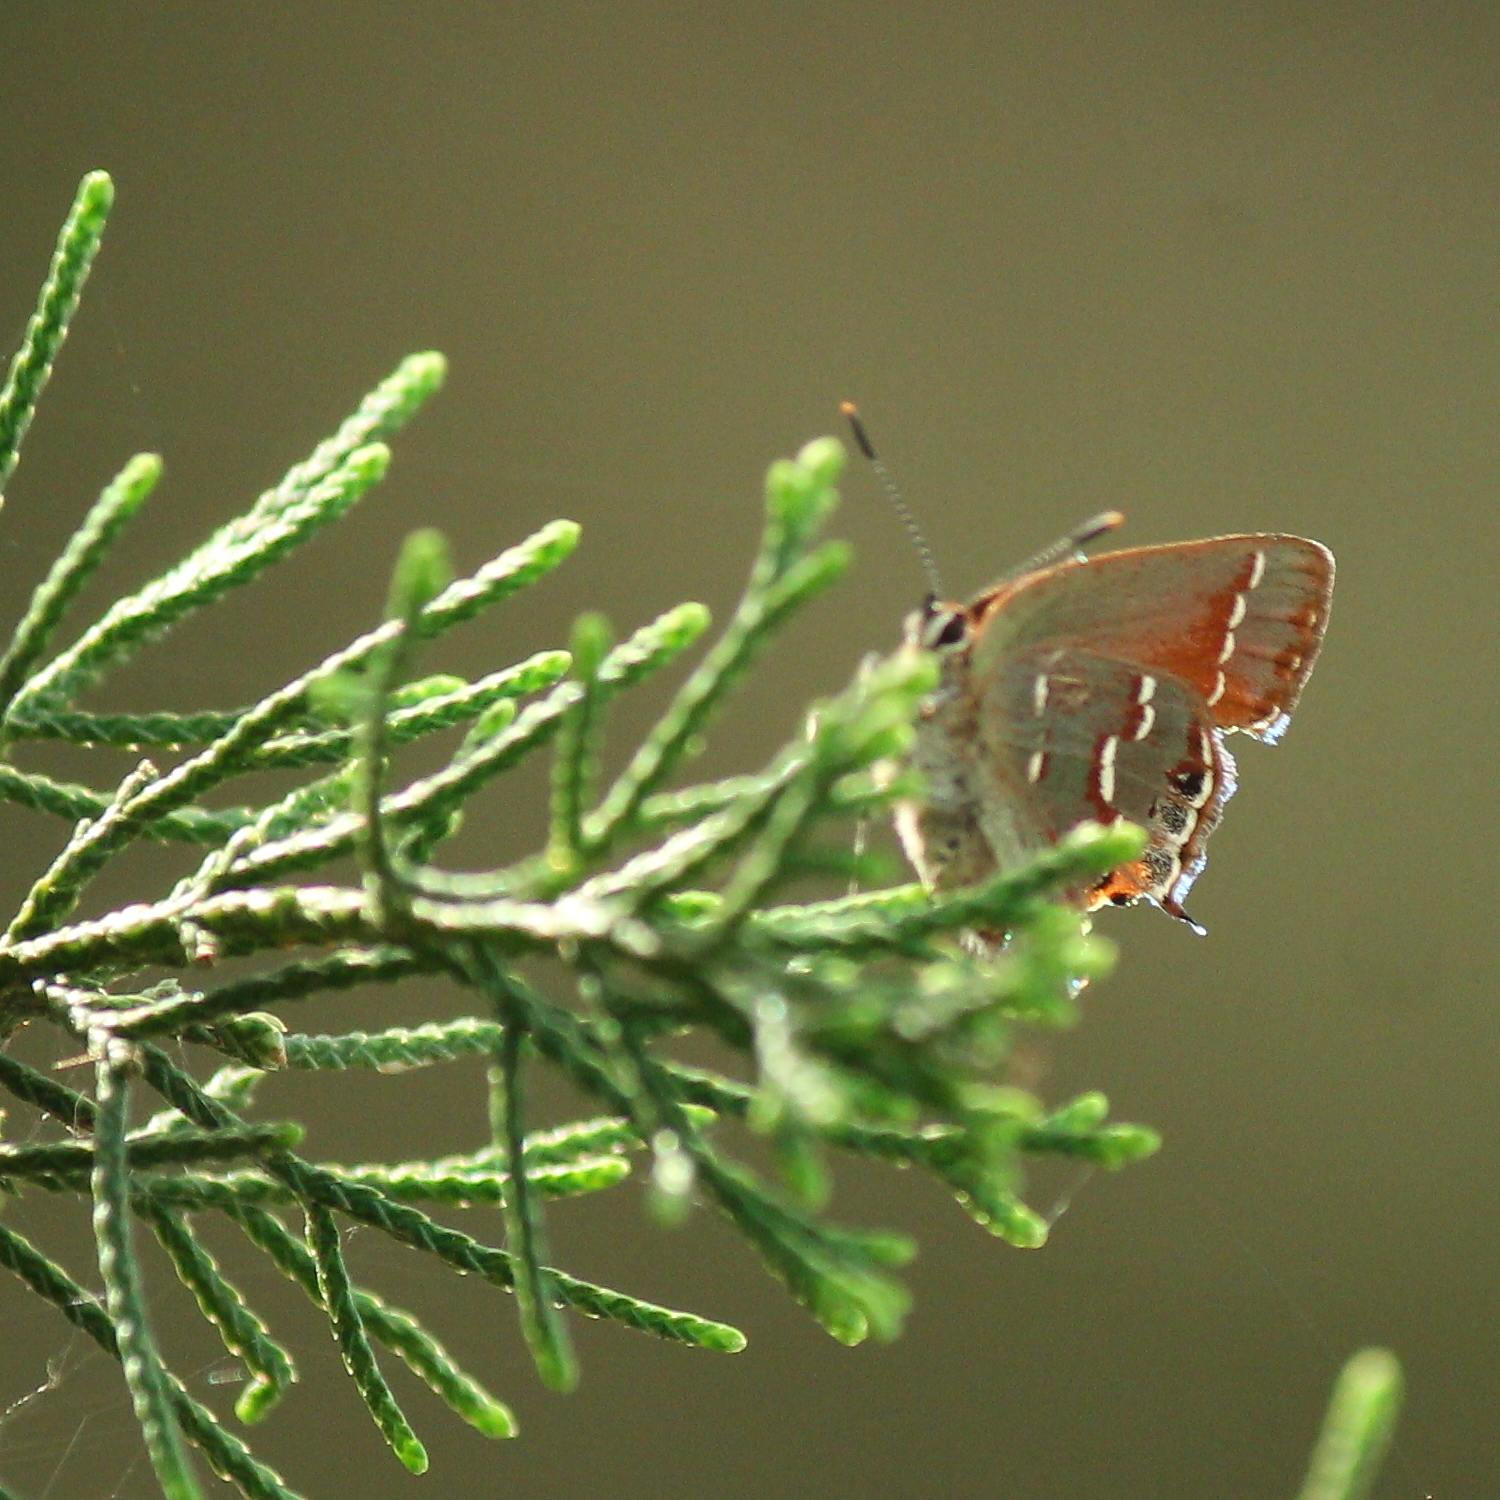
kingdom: Animalia
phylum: Arthropoda
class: Insecta
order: Lepidoptera
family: Lycaenidae
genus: Mitoura
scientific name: Mitoura gryneus
